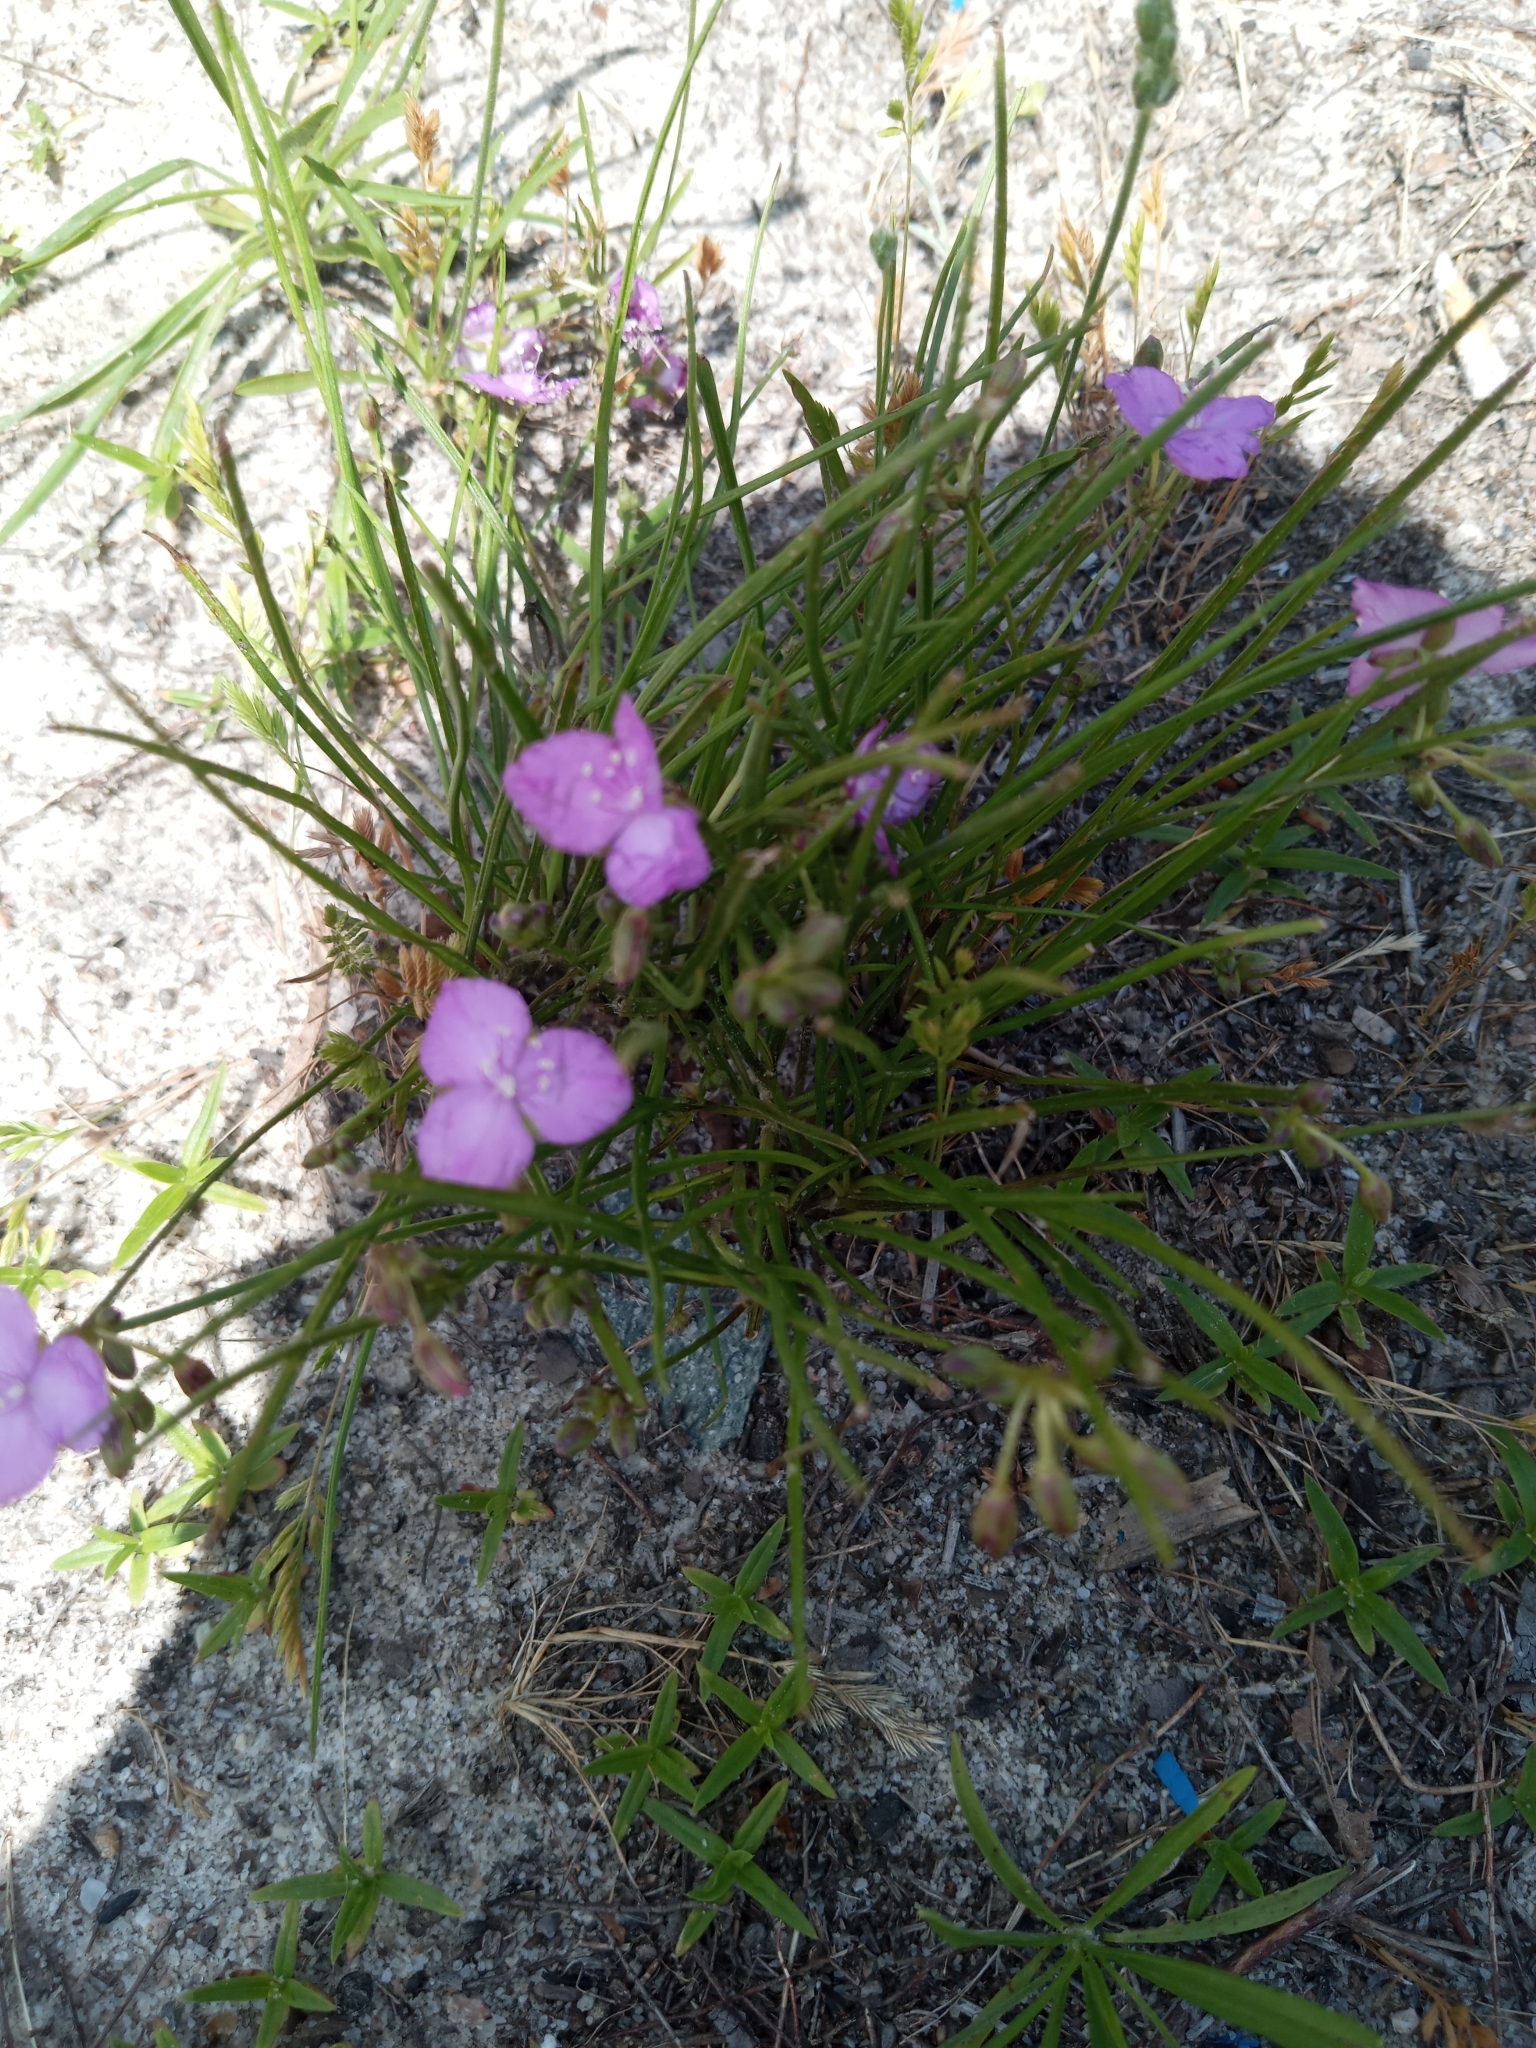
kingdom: Plantae
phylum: Tracheophyta
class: Liliopsida
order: Commelinales
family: Commelinaceae
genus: Callisia
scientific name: Callisia graminea
